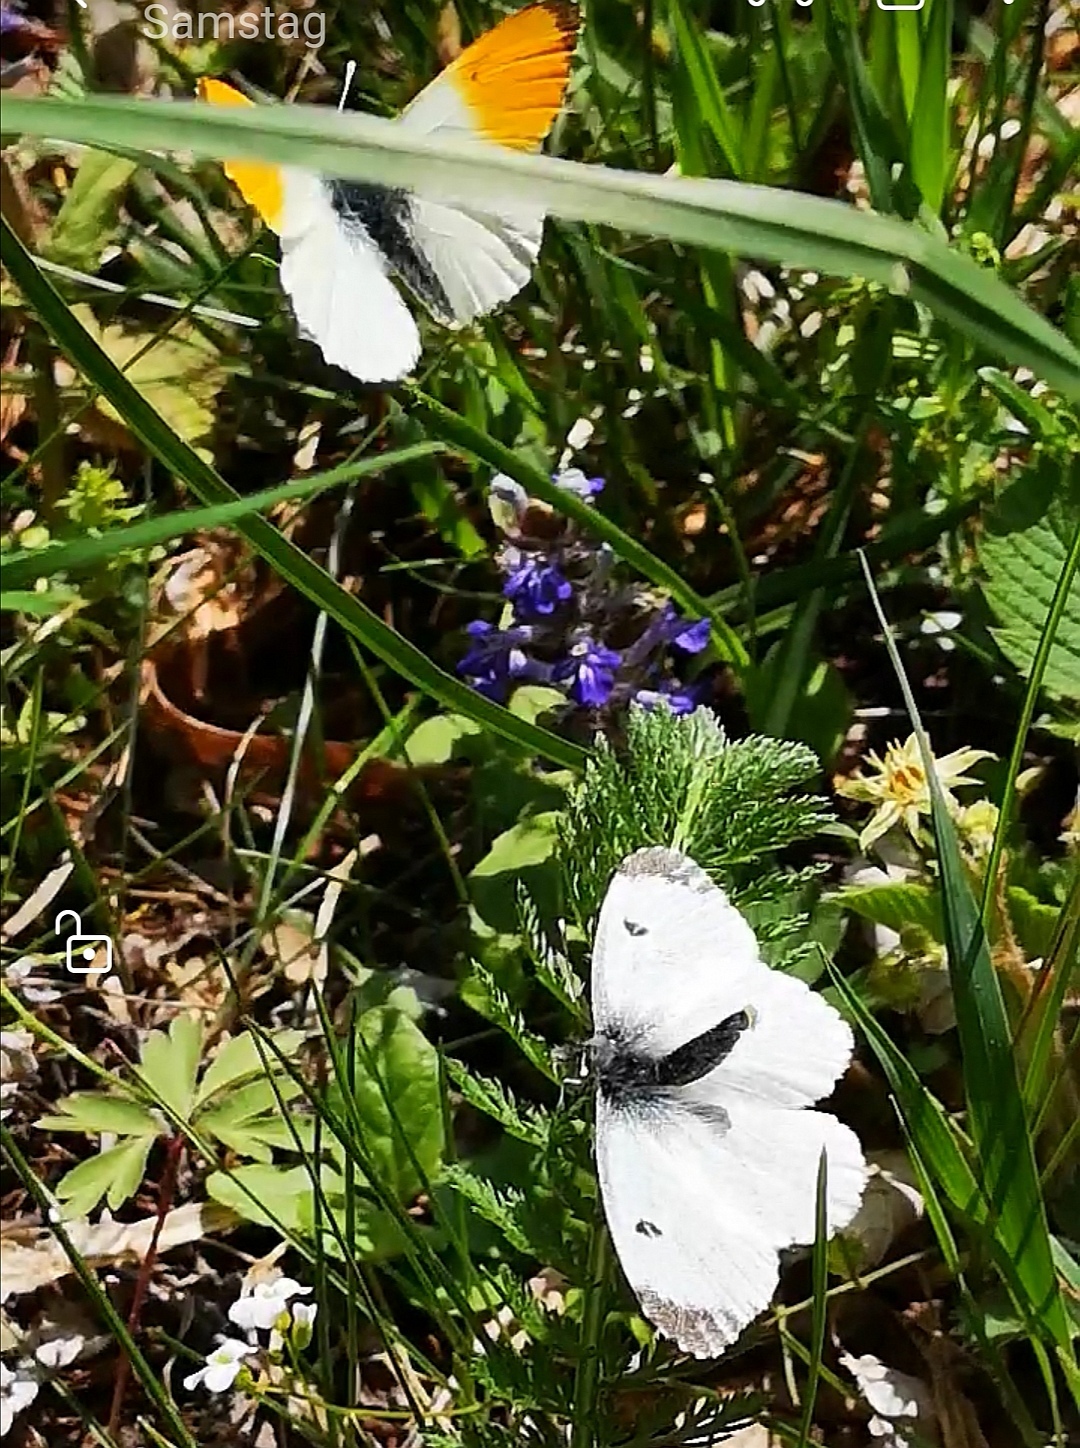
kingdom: Animalia
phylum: Arthropoda
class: Insecta
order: Lepidoptera
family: Pieridae
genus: Anthocharis
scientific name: Anthocharis cardamines
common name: Orange-tip
